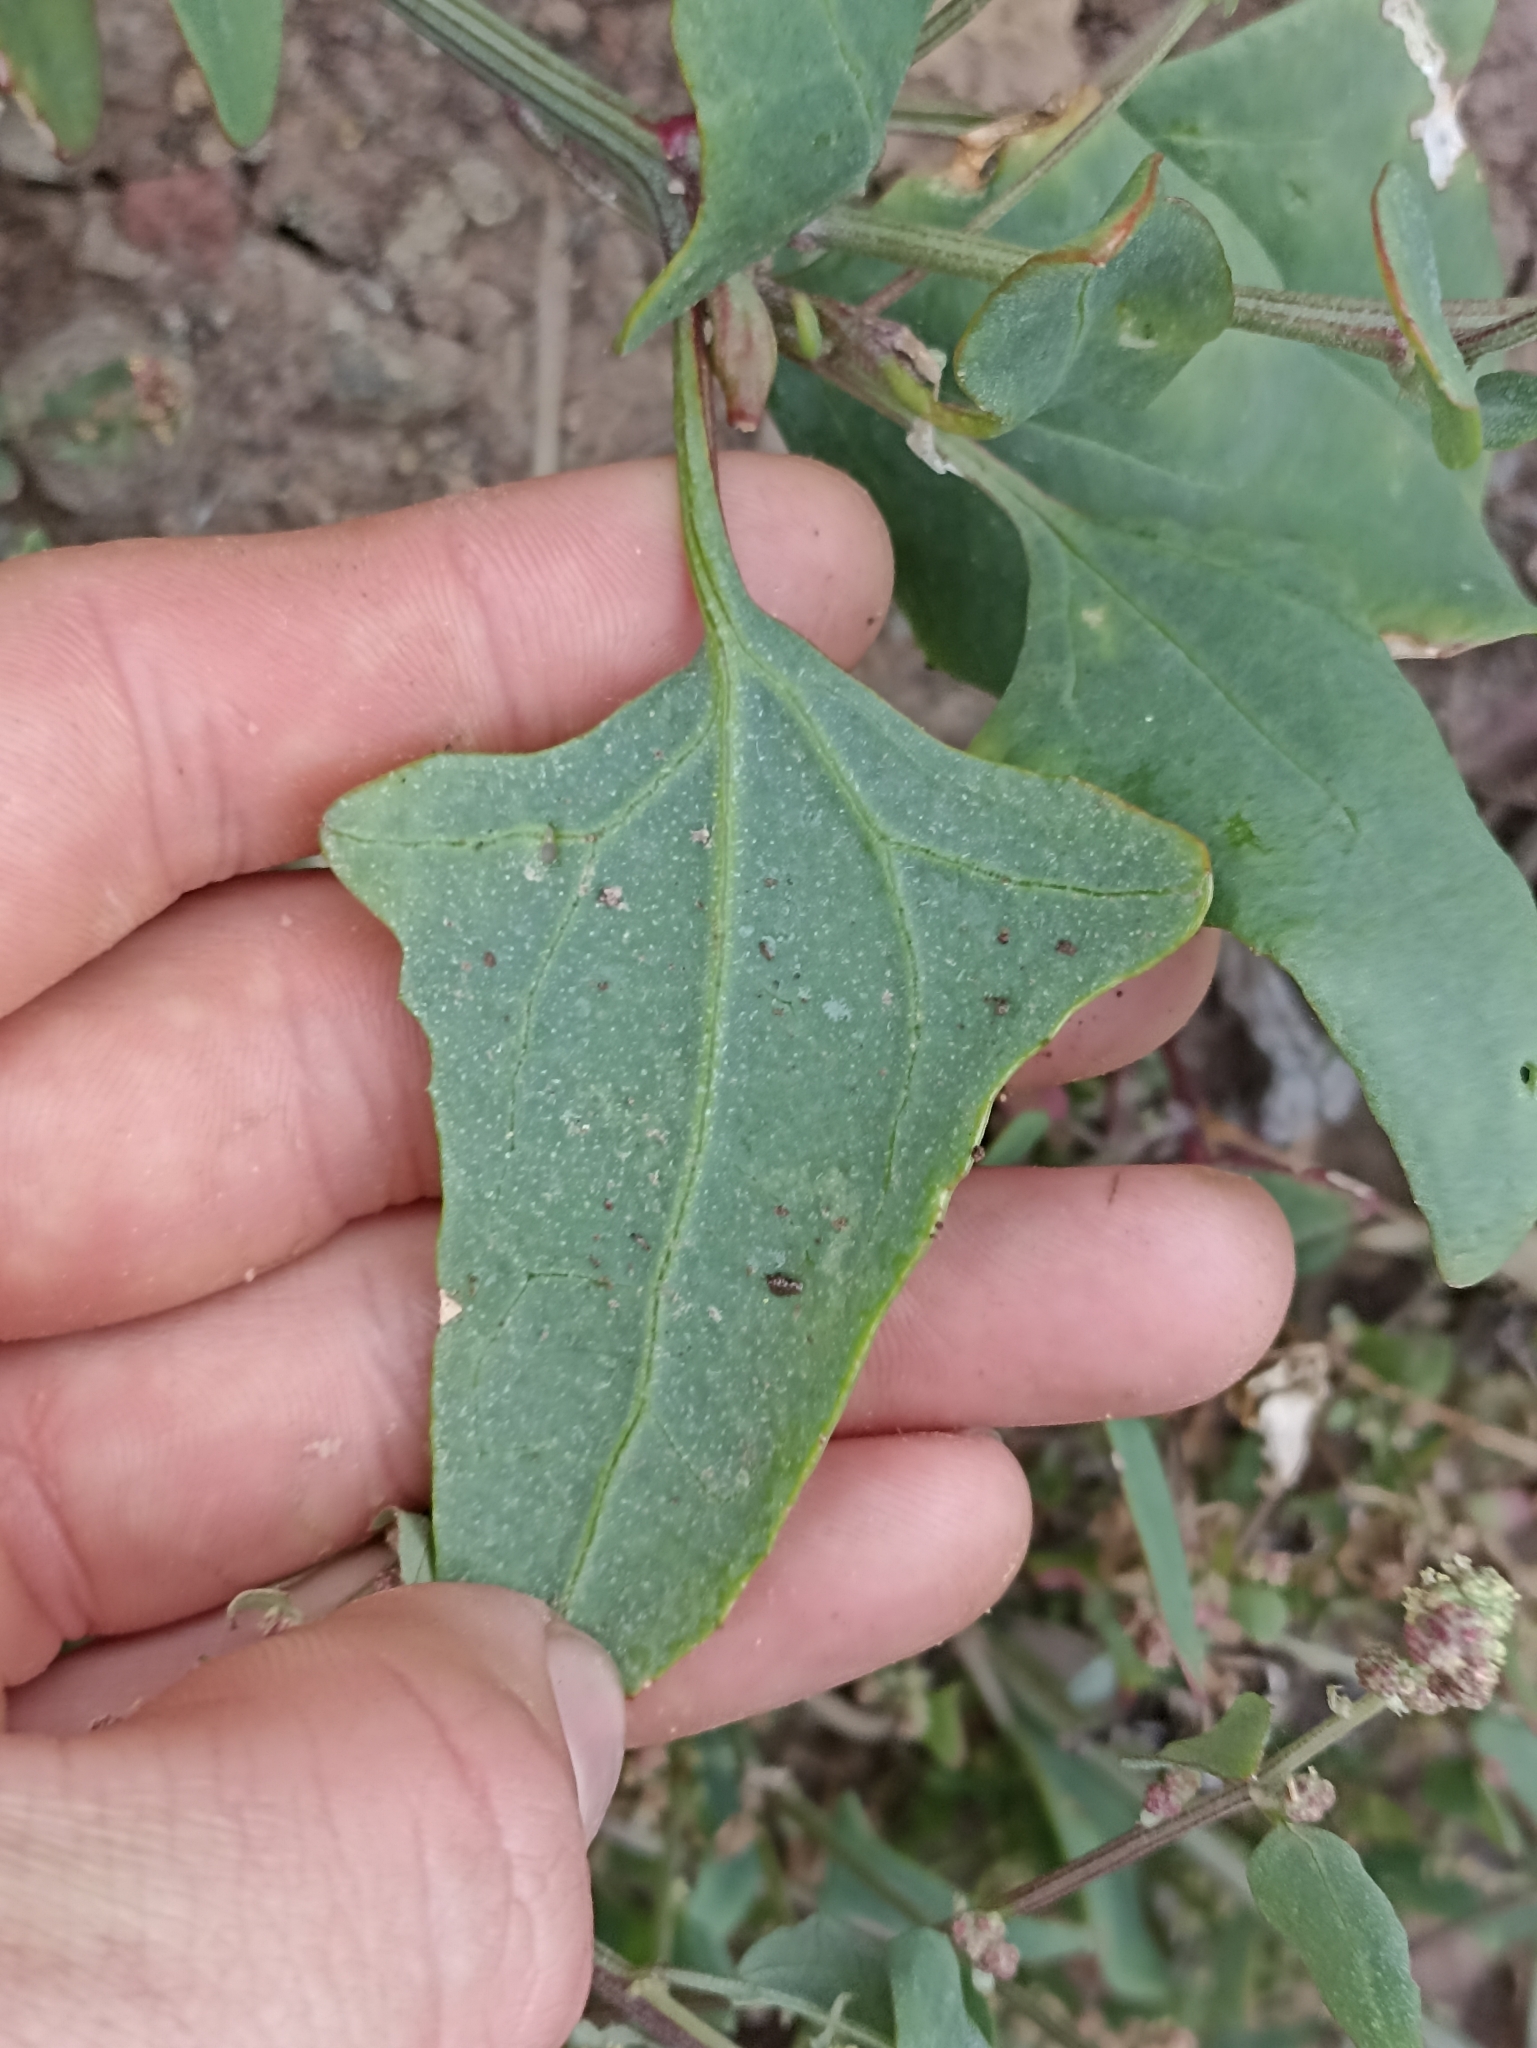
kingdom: Plantae
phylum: Tracheophyta
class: Magnoliopsida
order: Caryophyllales
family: Amaranthaceae
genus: Atriplex
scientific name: Atriplex prostrata
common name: Spear-leaved orache
